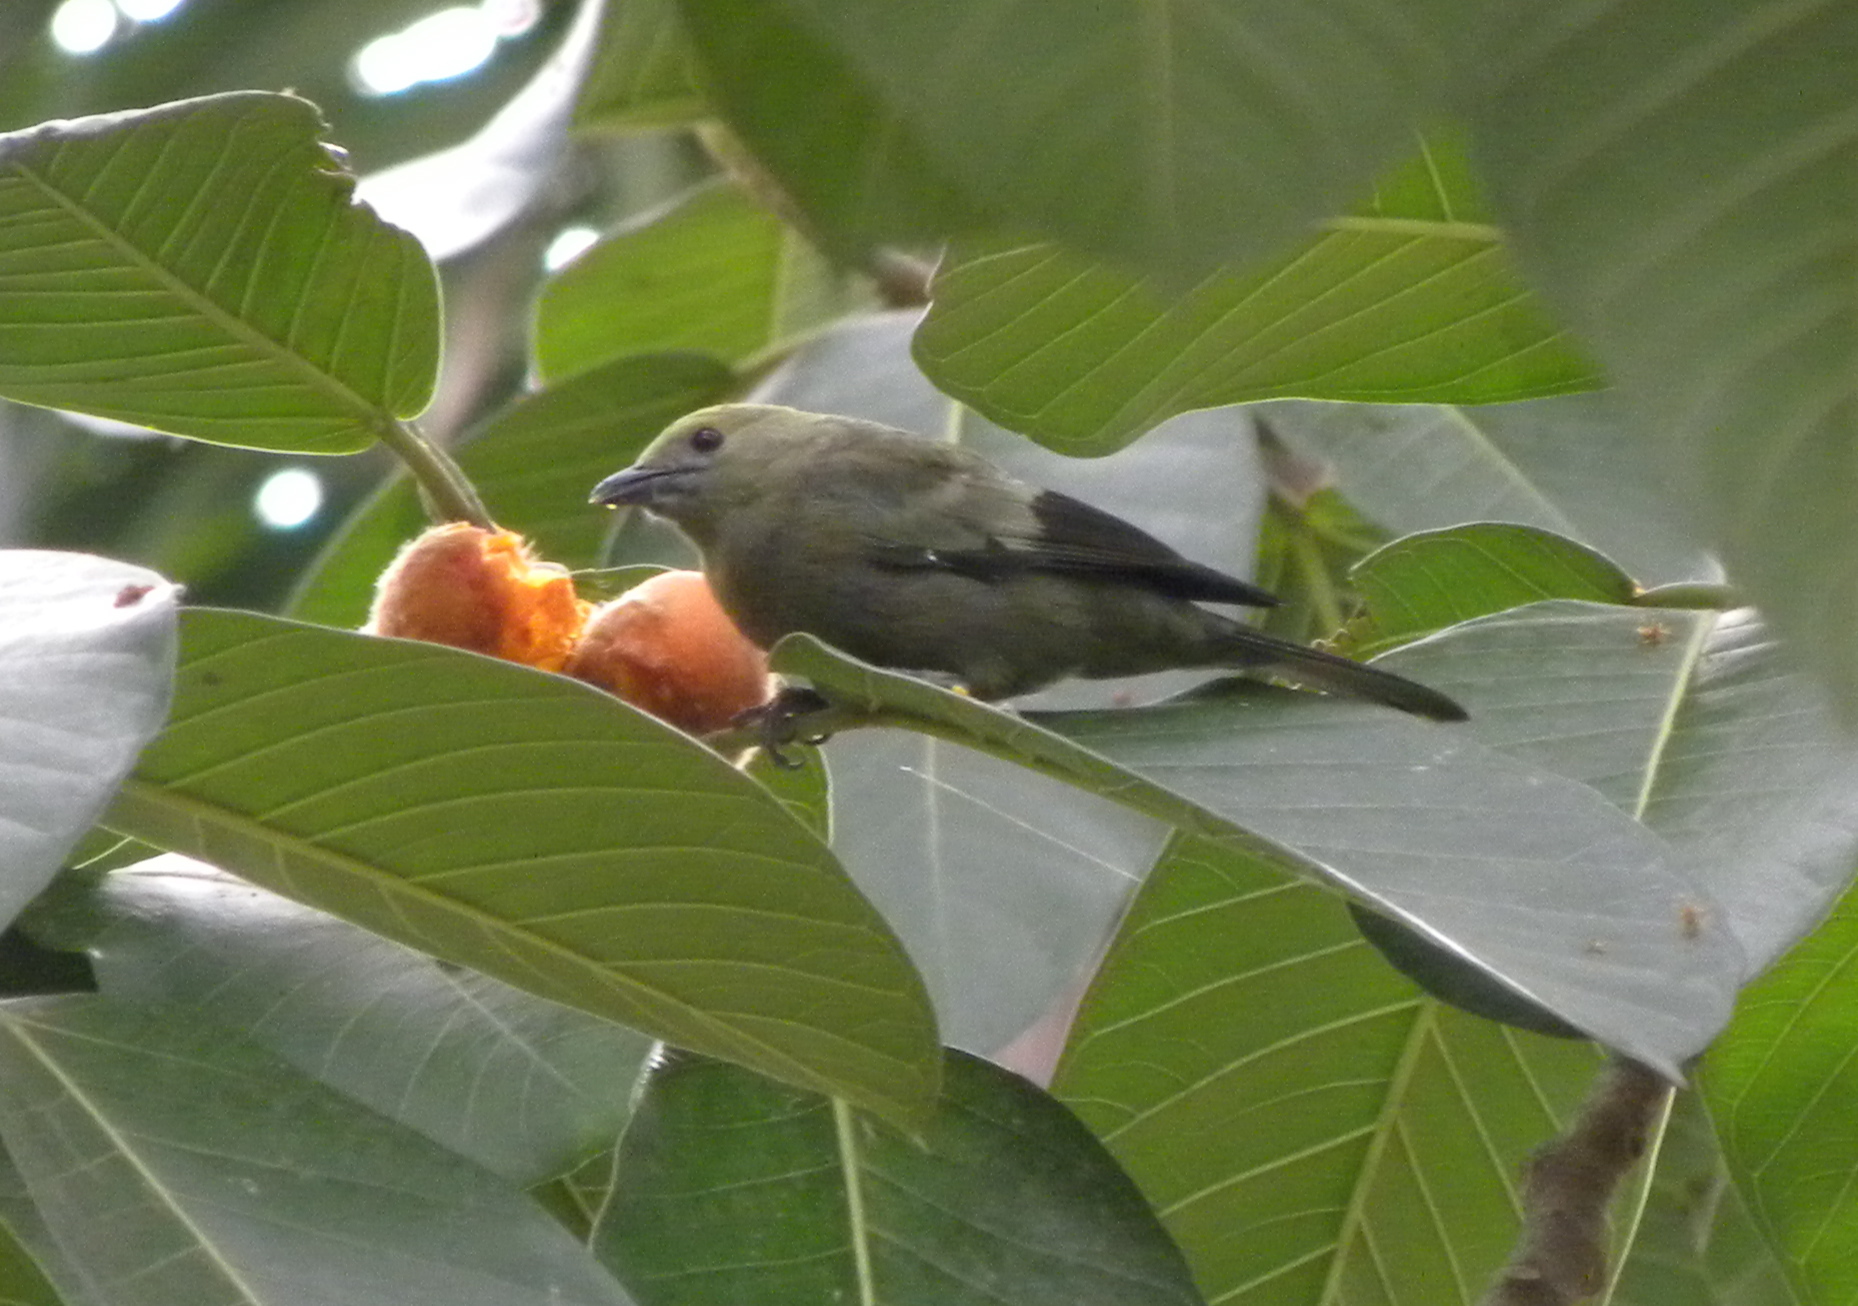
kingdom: Animalia
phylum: Chordata
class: Aves
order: Passeriformes
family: Thraupidae
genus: Thraupis
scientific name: Thraupis palmarum
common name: Palm tanager
